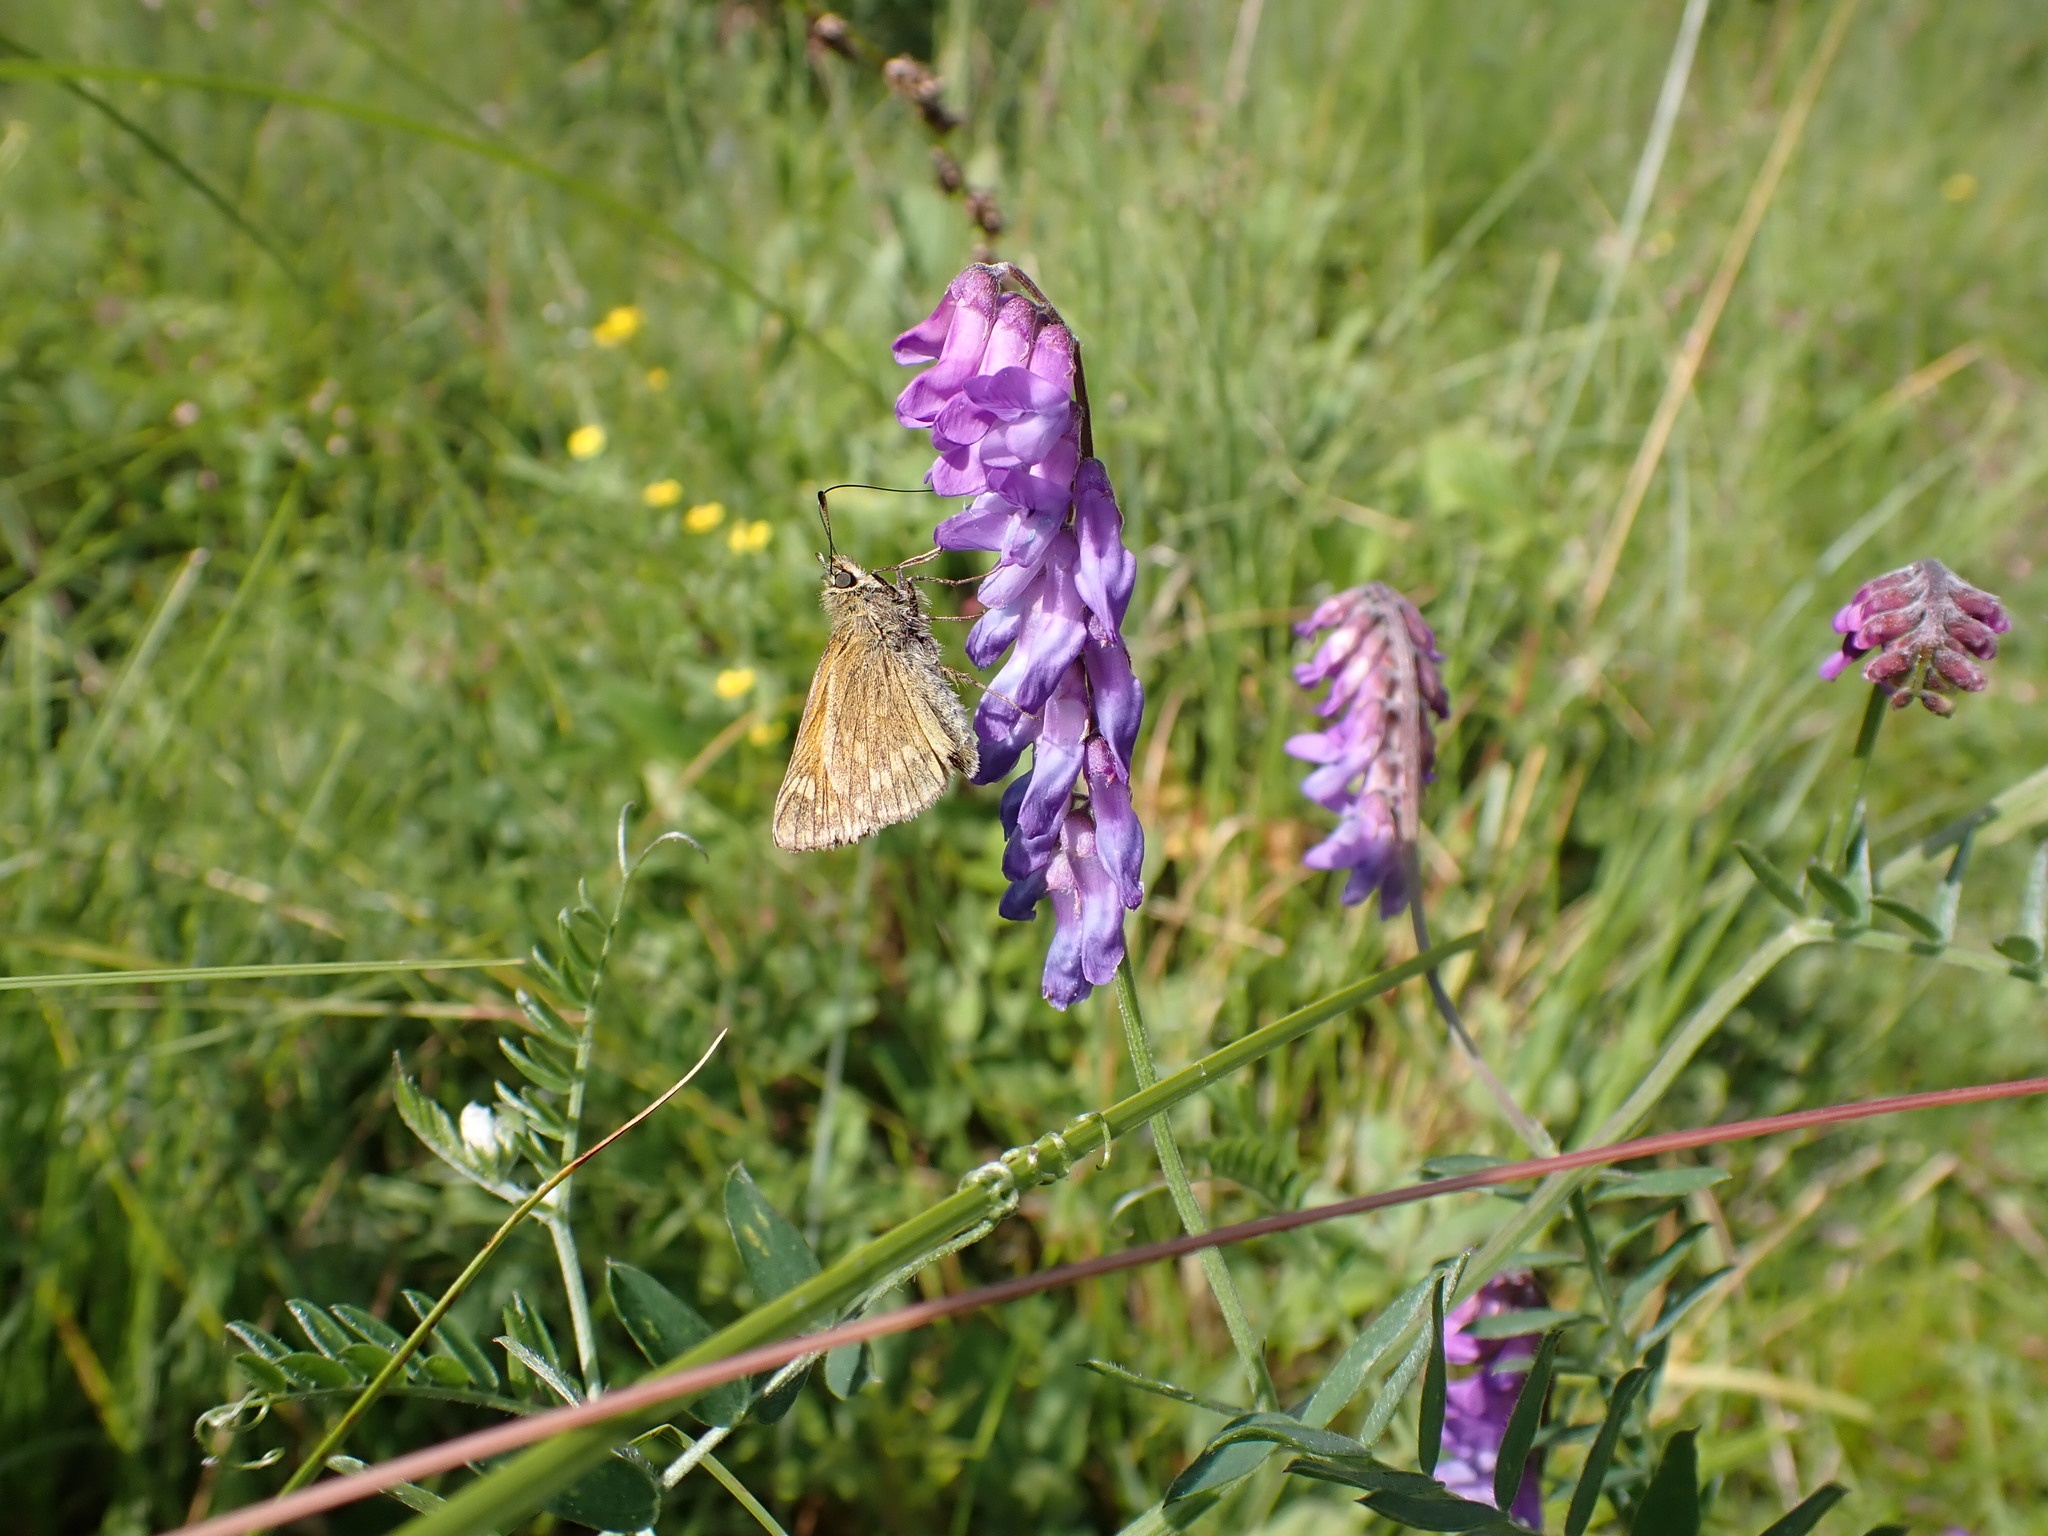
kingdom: Animalia
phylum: Arthropoda
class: Insecta
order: Lepidoptera
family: Hesperiidae
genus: Ochlodes
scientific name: Ochlodes venata
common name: Large skipper
